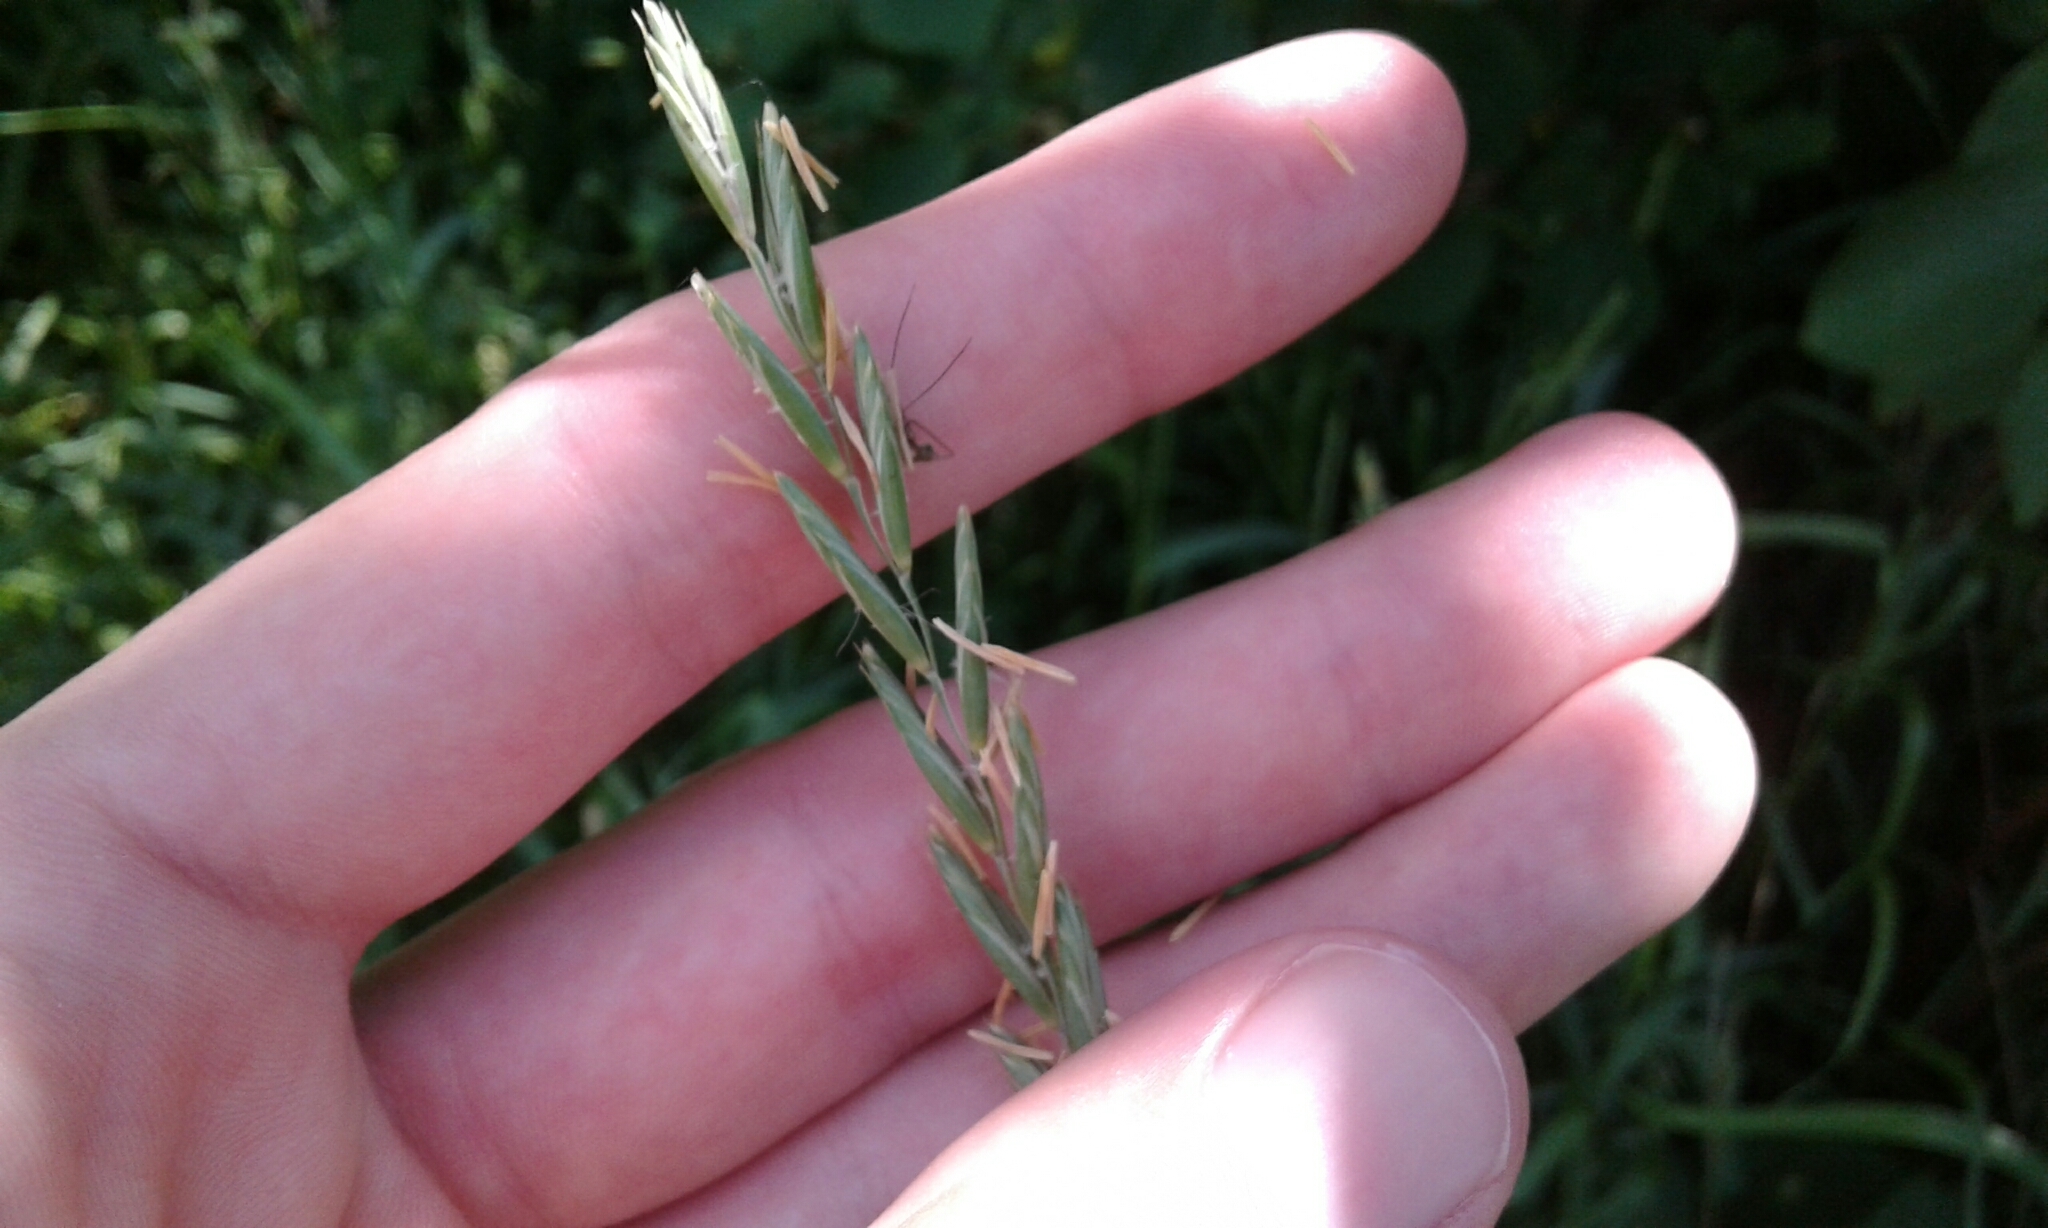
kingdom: Plantae
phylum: Tracheophyta
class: Liliopsida
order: Poales
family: Poaceae
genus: Elymus
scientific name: Elymus repens
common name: Quackgrass
